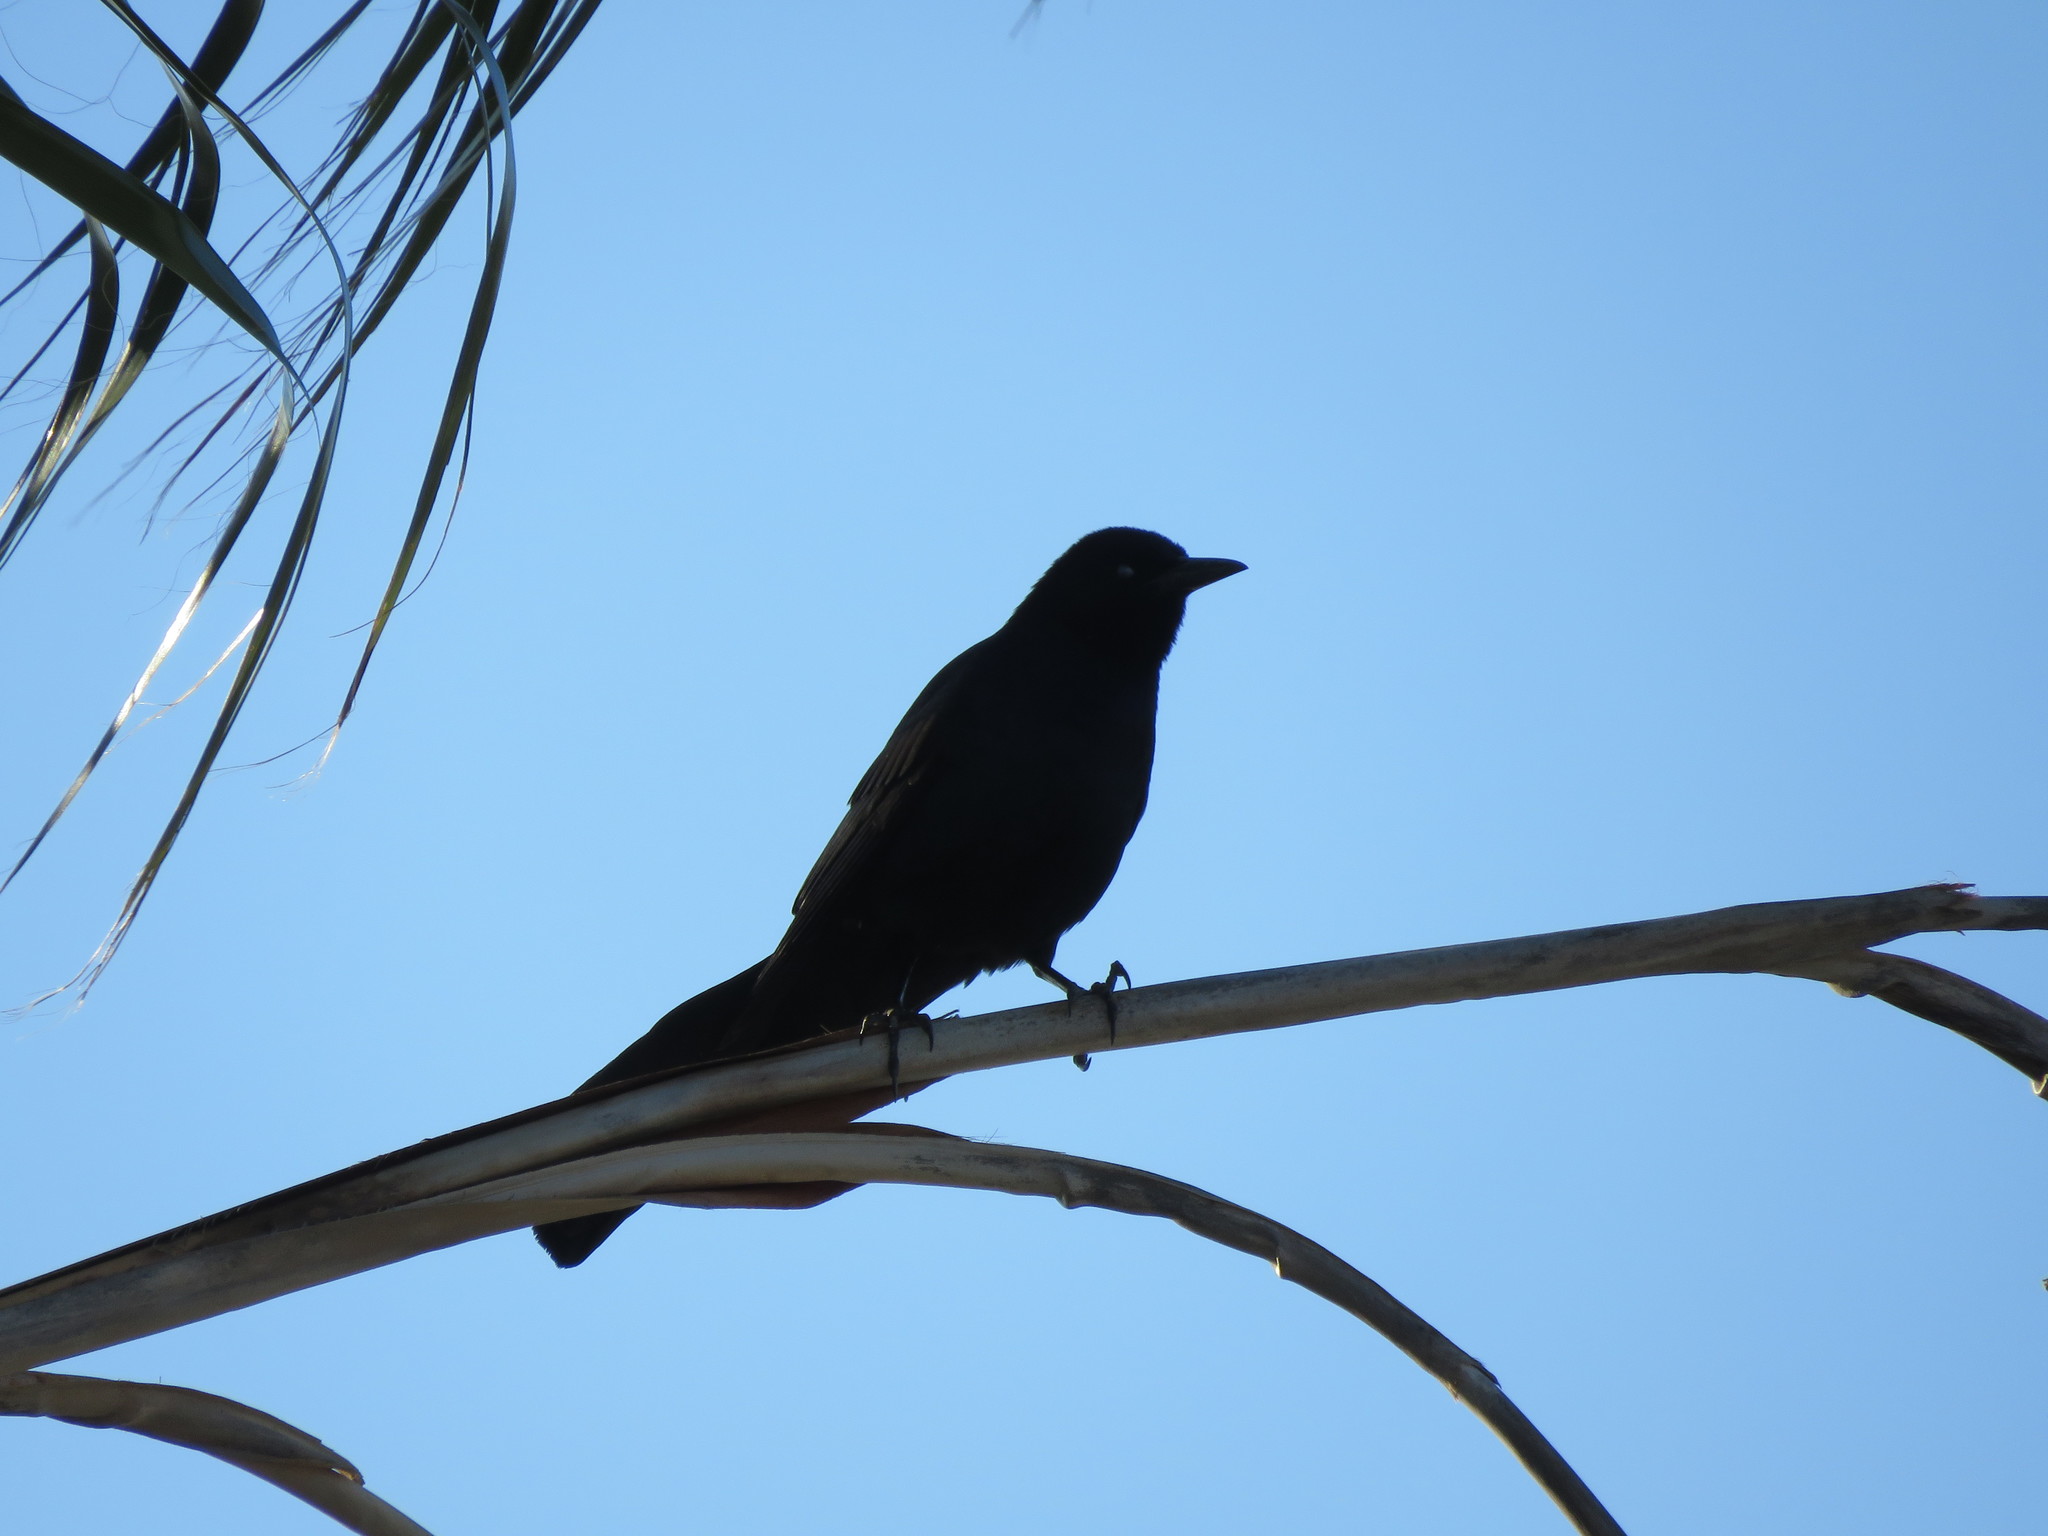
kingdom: Animalia
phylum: Chordata
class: Aves
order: Passeriformes
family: Icteridae
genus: Quiscalus
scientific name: Quiscalus mexicanus
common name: Great-tailed grackle
